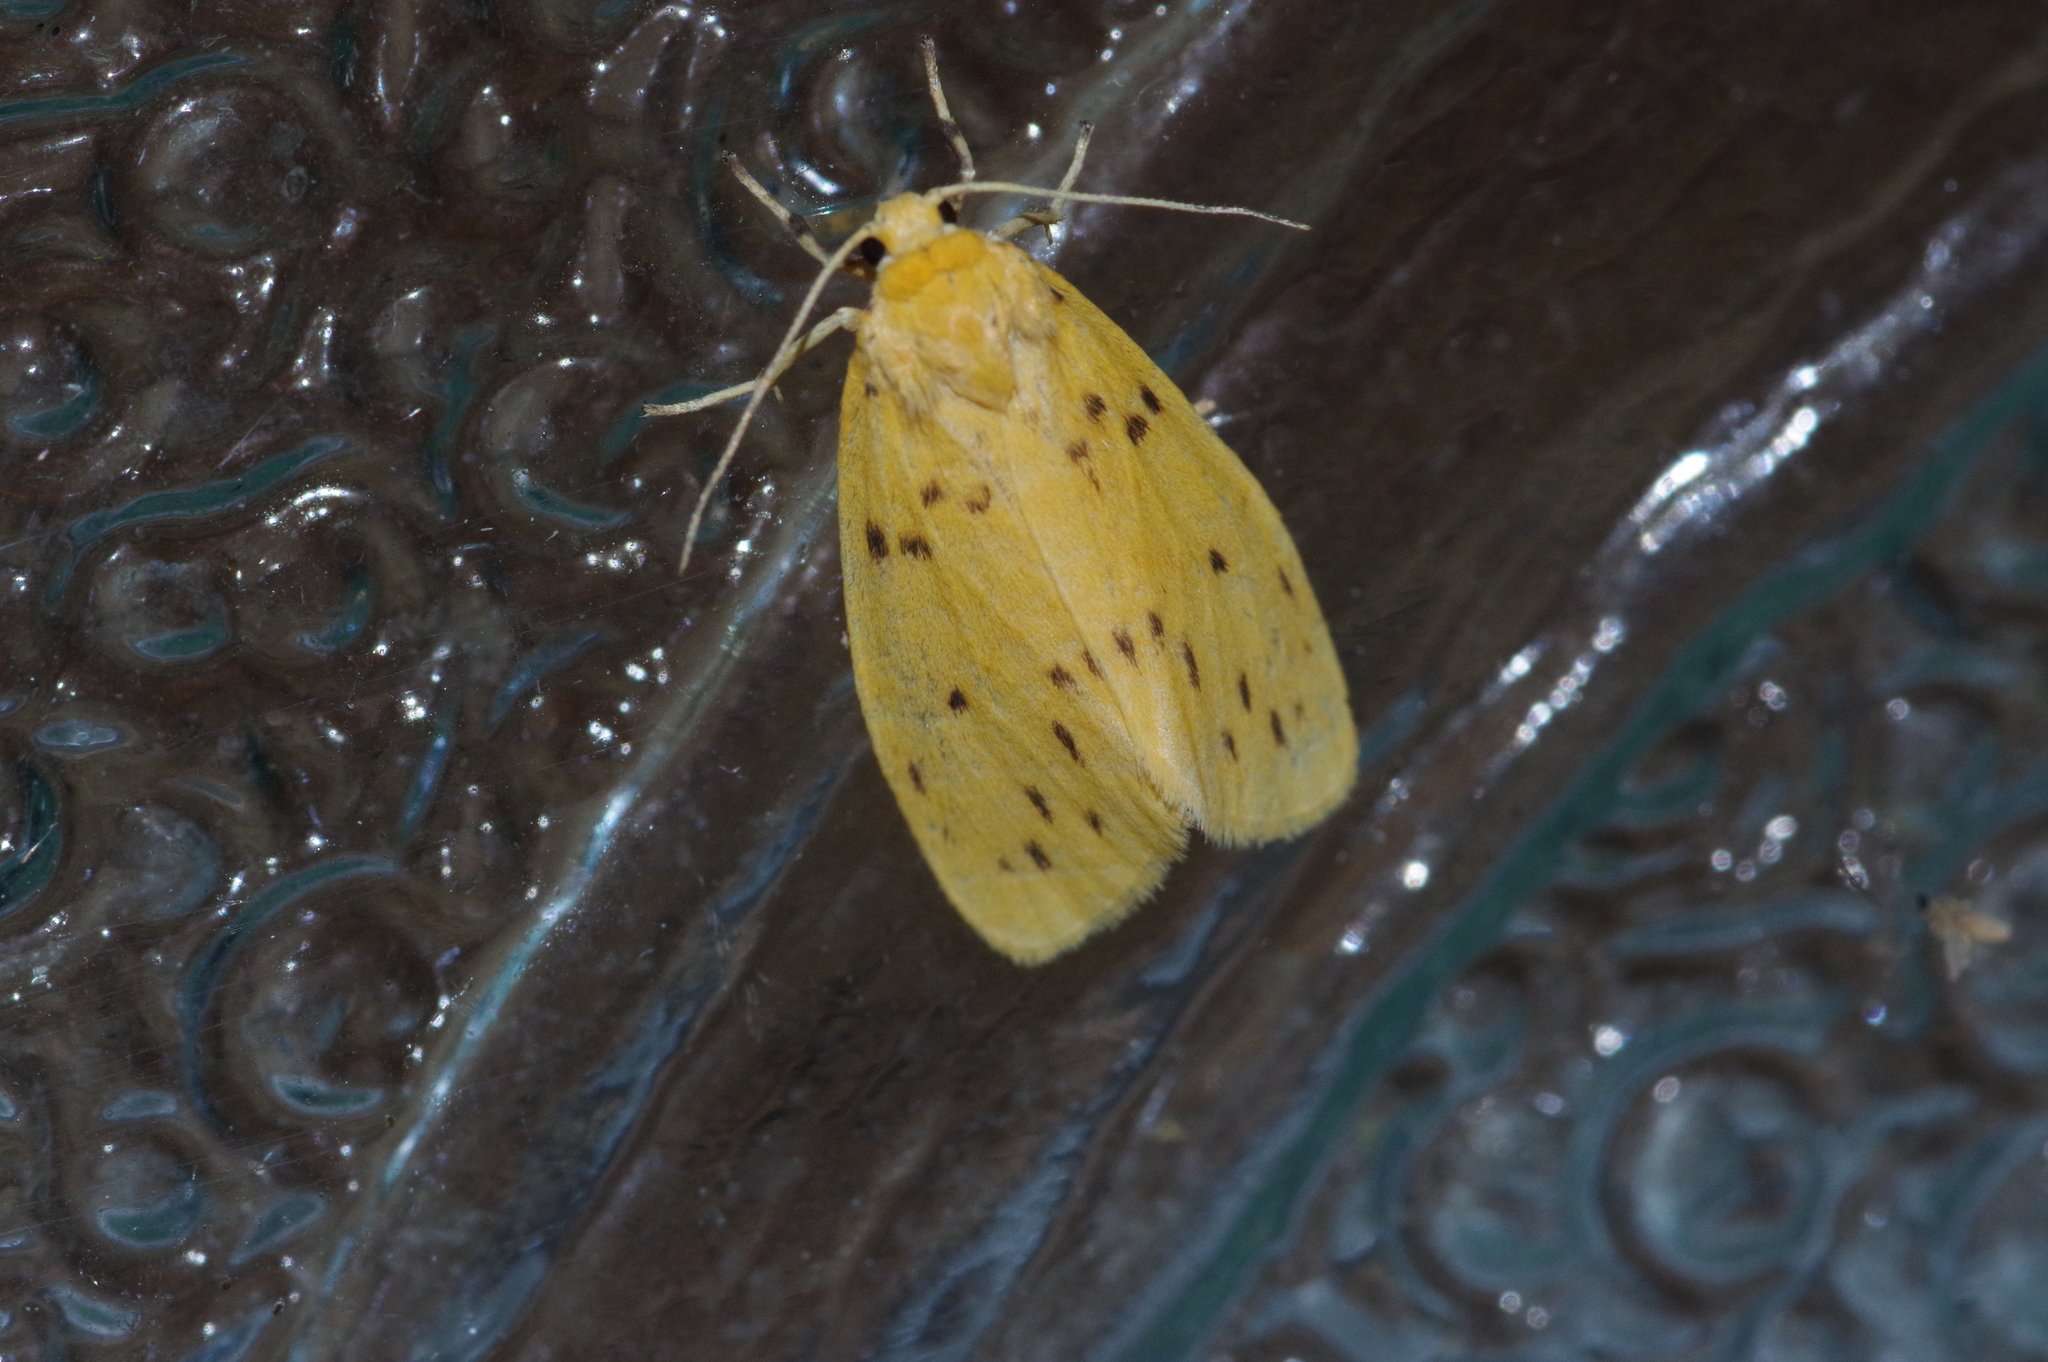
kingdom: Animalia
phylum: Arthropoda
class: Insecta
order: Lepidoptera
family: Erebidae
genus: Miltochrista
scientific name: Miltochrista dharma
